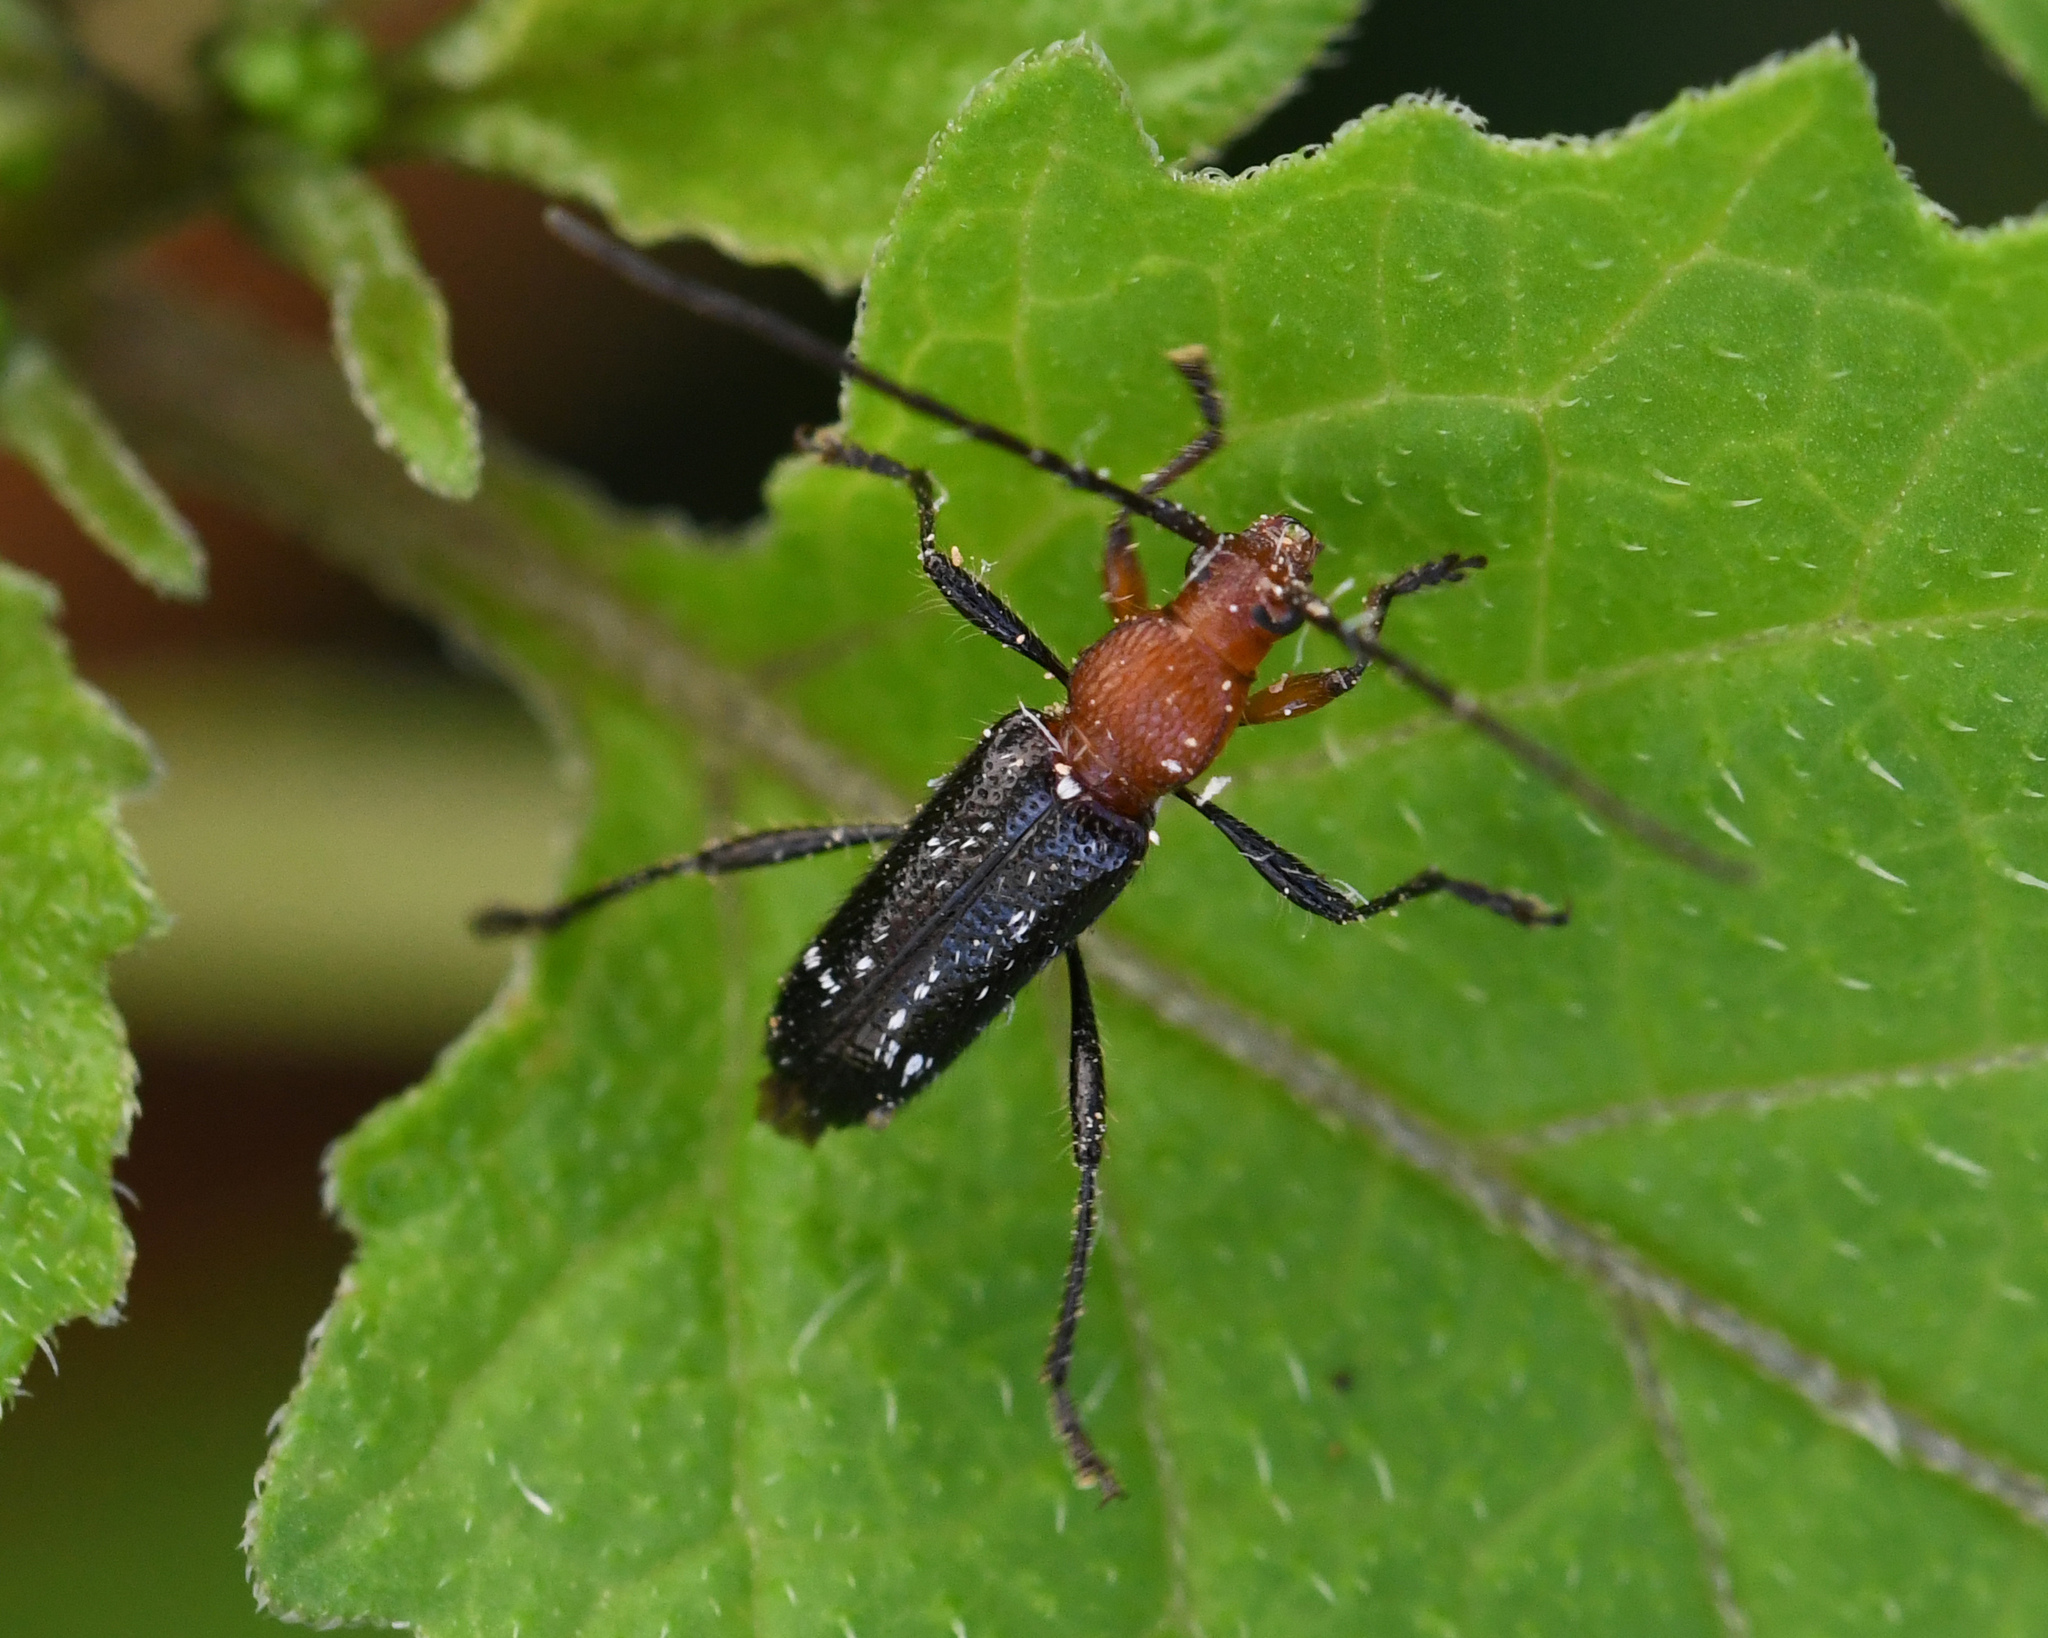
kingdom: Animalia
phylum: Arthropoda
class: Insecta
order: Coleoptera
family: Cerambycidae
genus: Trichrous
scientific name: Trichrous irroratus
